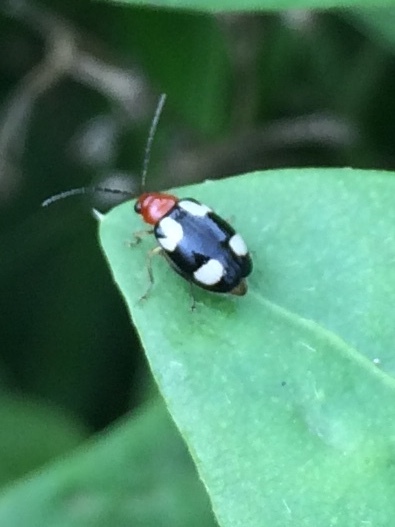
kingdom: Animalia
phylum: Arthropoda
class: Insecta
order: Coleoptera
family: Chrysomelidae
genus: Monolepta
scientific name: Monolepta signata
